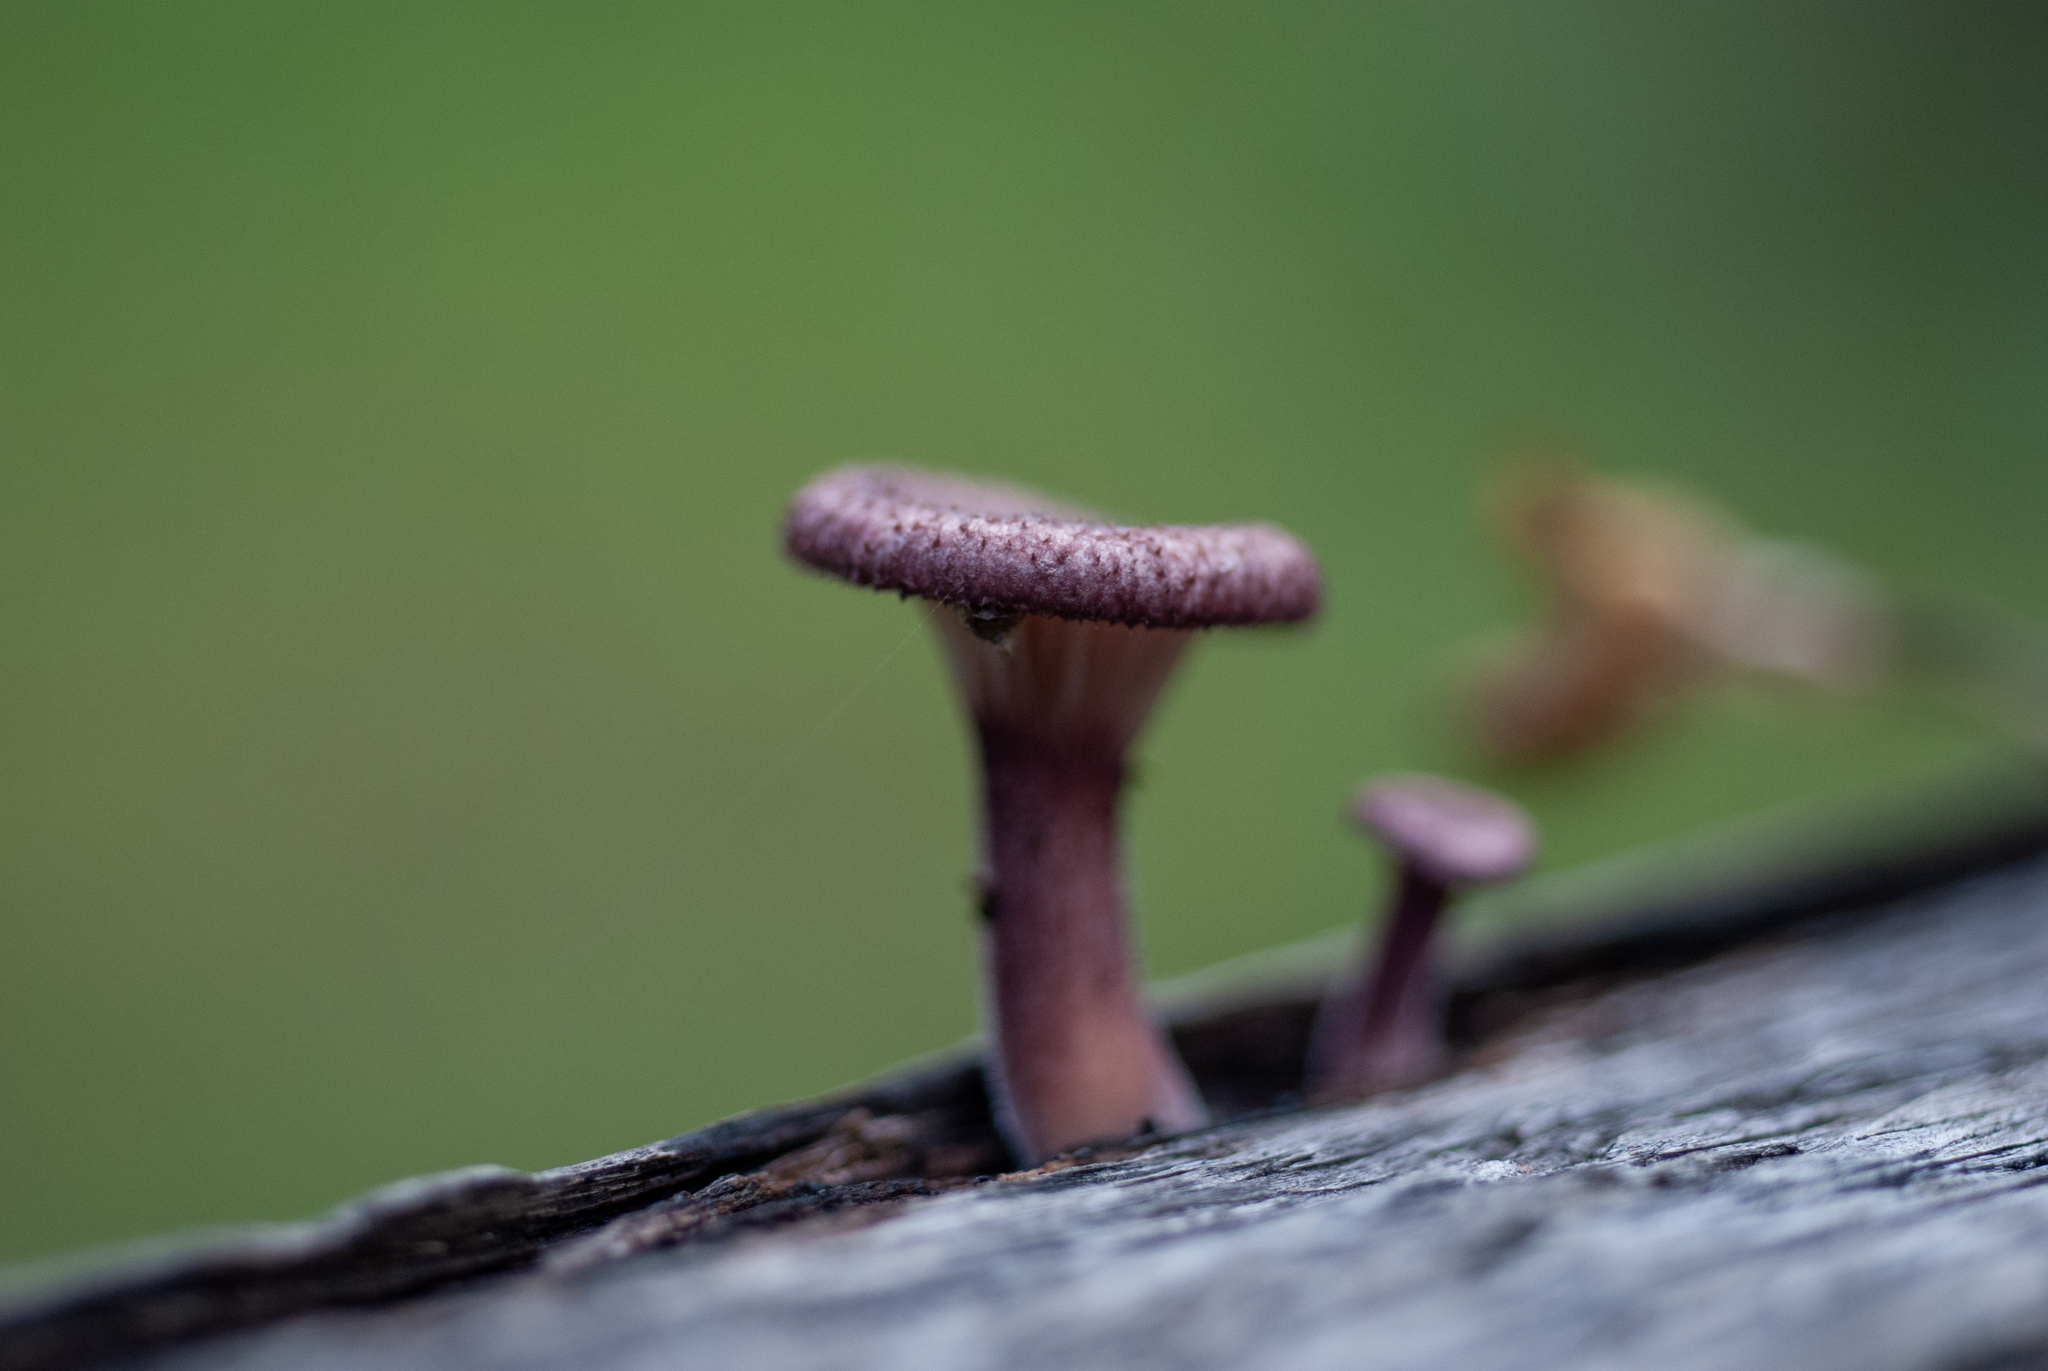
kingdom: Fungi
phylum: Basidiomycota
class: Agaricomycetes
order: Polyporales
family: Panaceae
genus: Panus
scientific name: Panus strigellus
